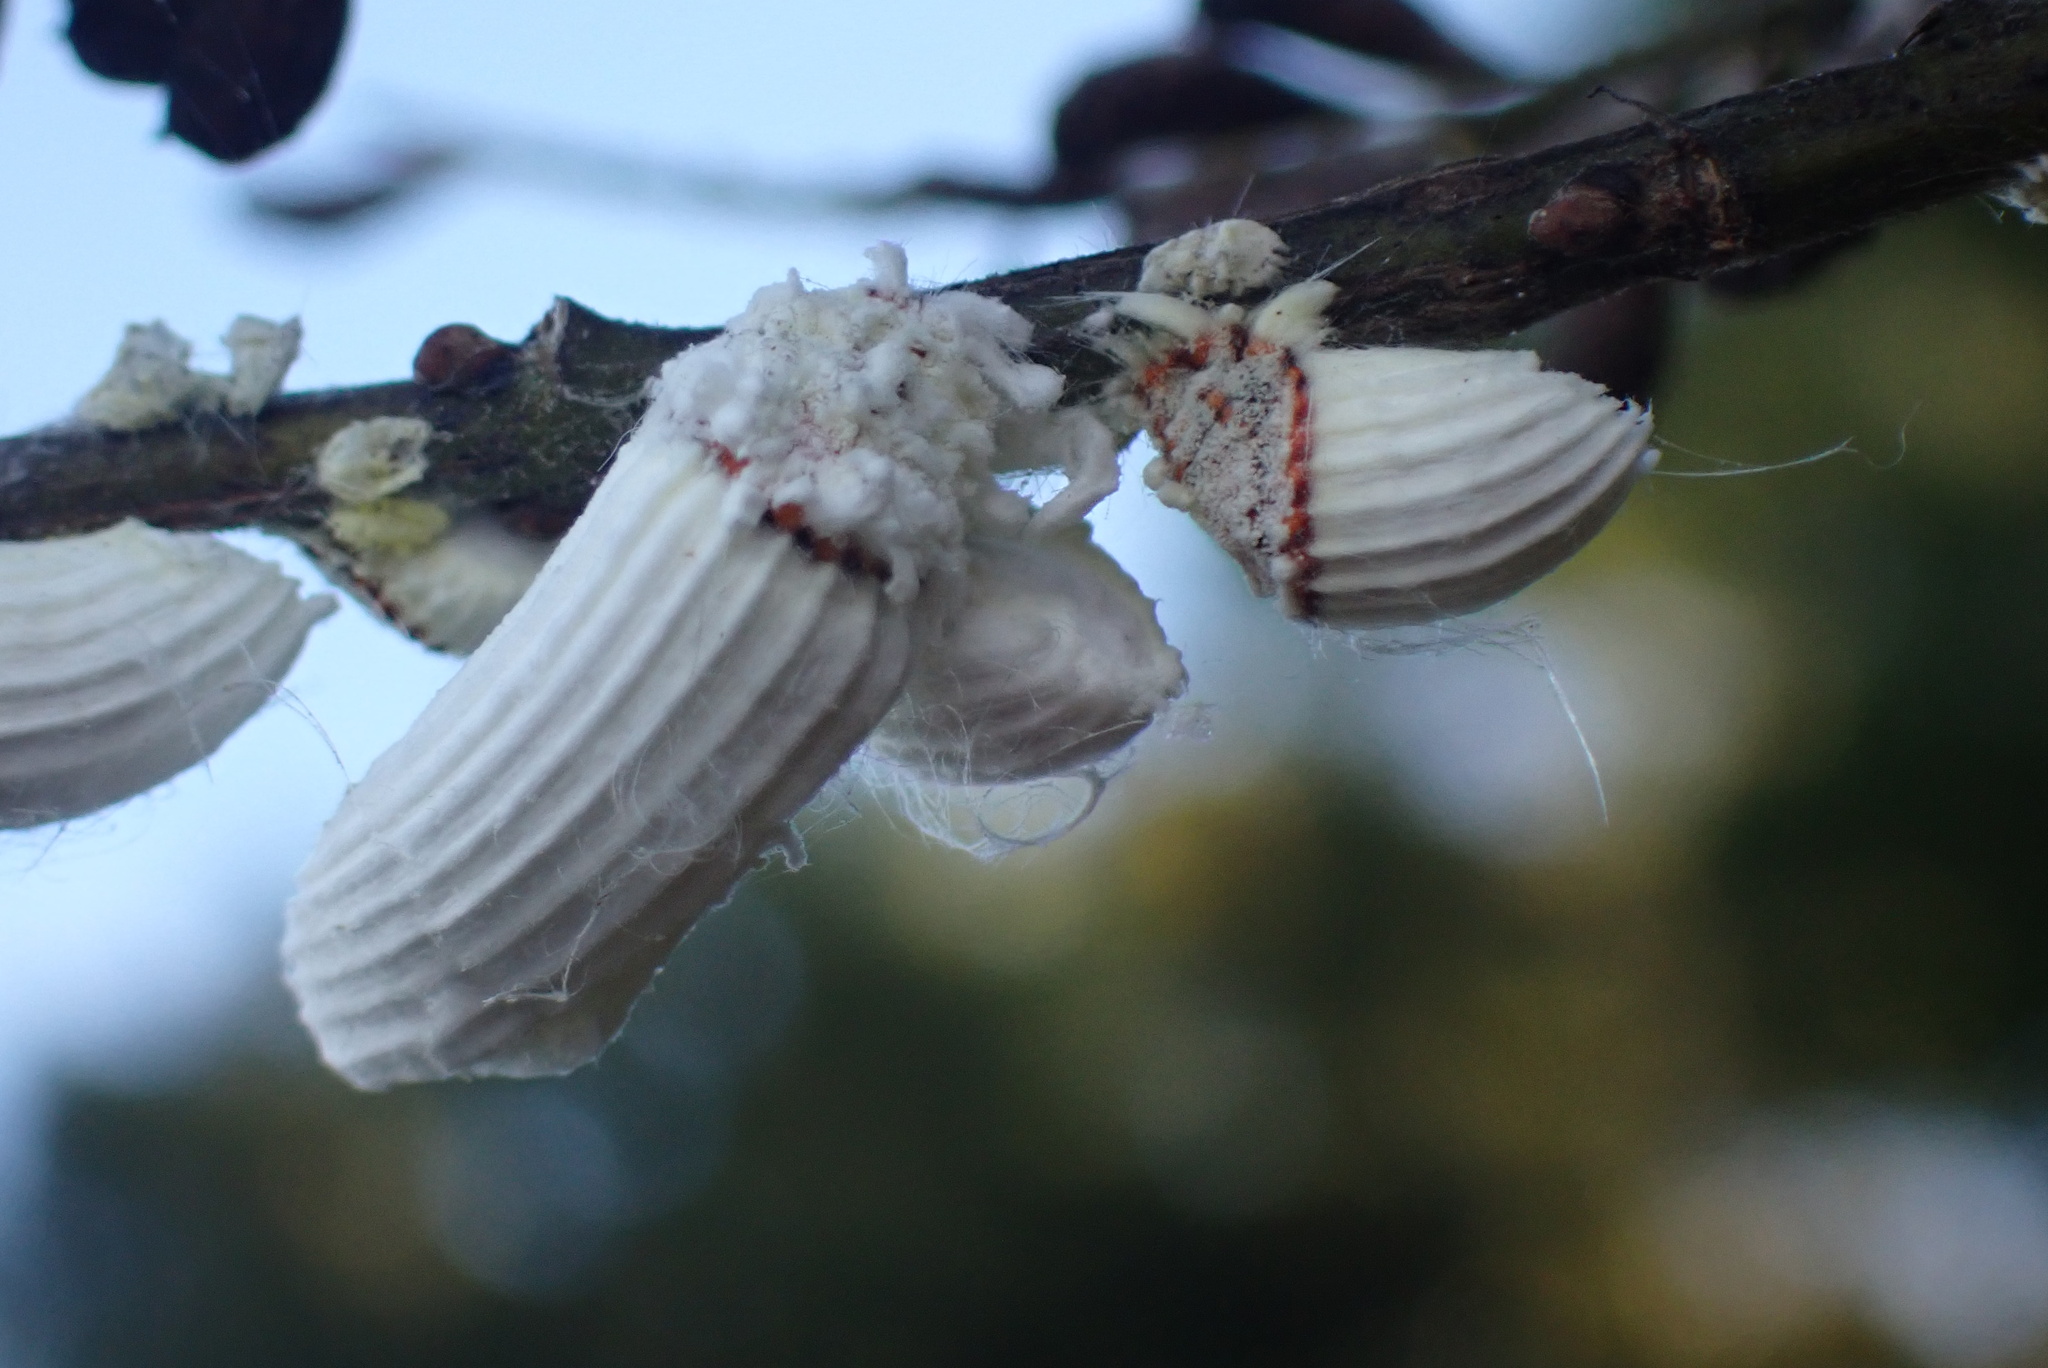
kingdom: Animalia
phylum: Arthropoda
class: Insecta
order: Hemiptera
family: Margarodidae
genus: Icerya
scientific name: Icerya purchasi
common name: Cottony cushion scale
